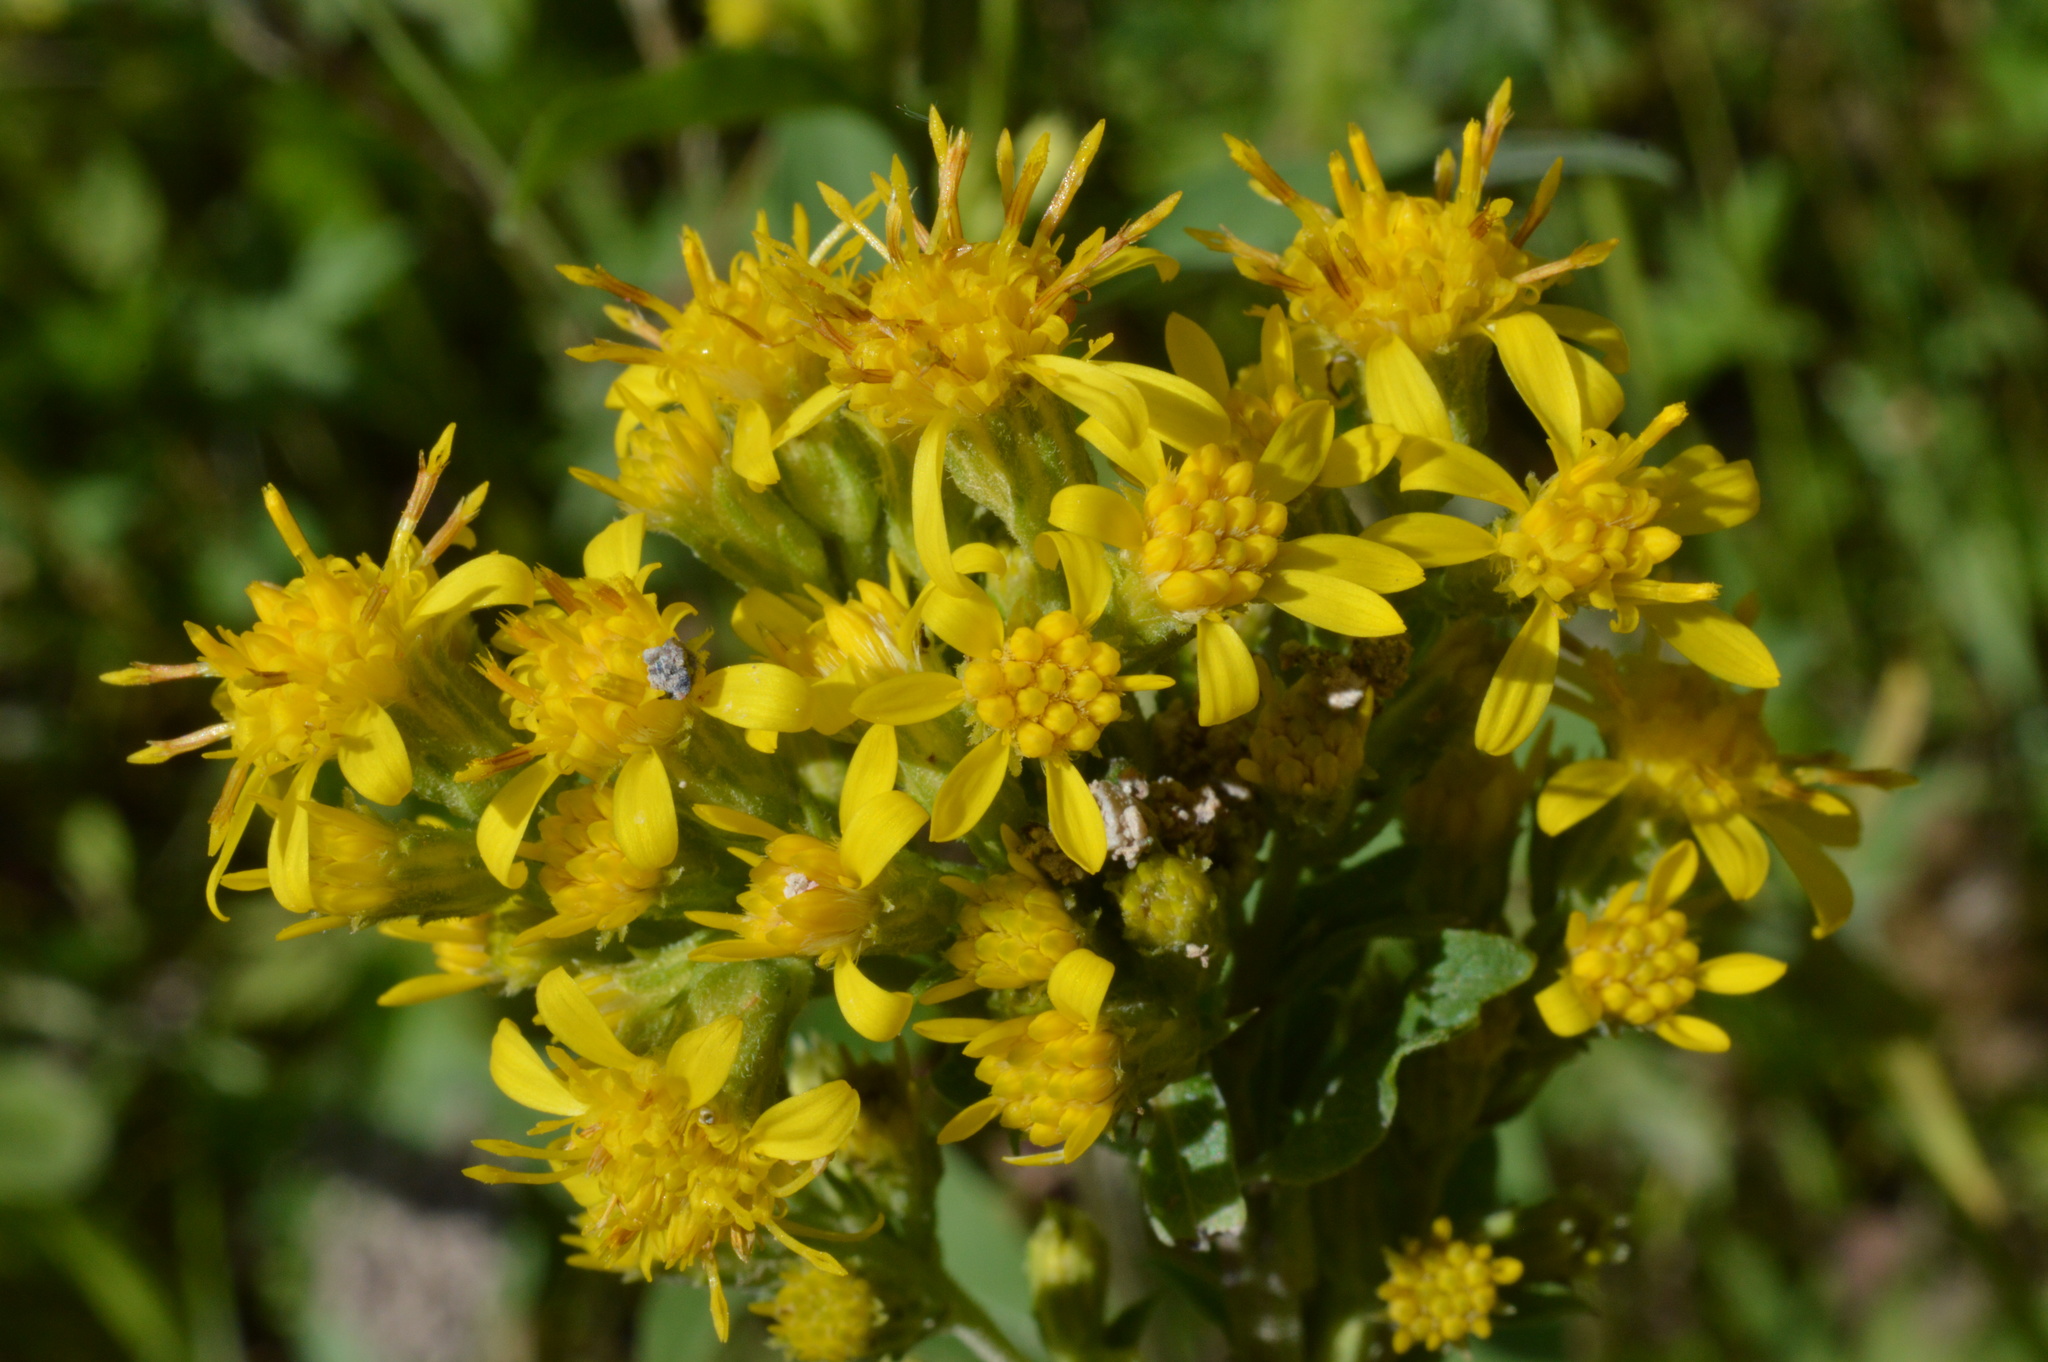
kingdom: Plantae
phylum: Tracheophyta
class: Magnoliopsida
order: Asterales
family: Asteraceae
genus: Solidago
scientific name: Solidago virgaurea
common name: Goldenrod
